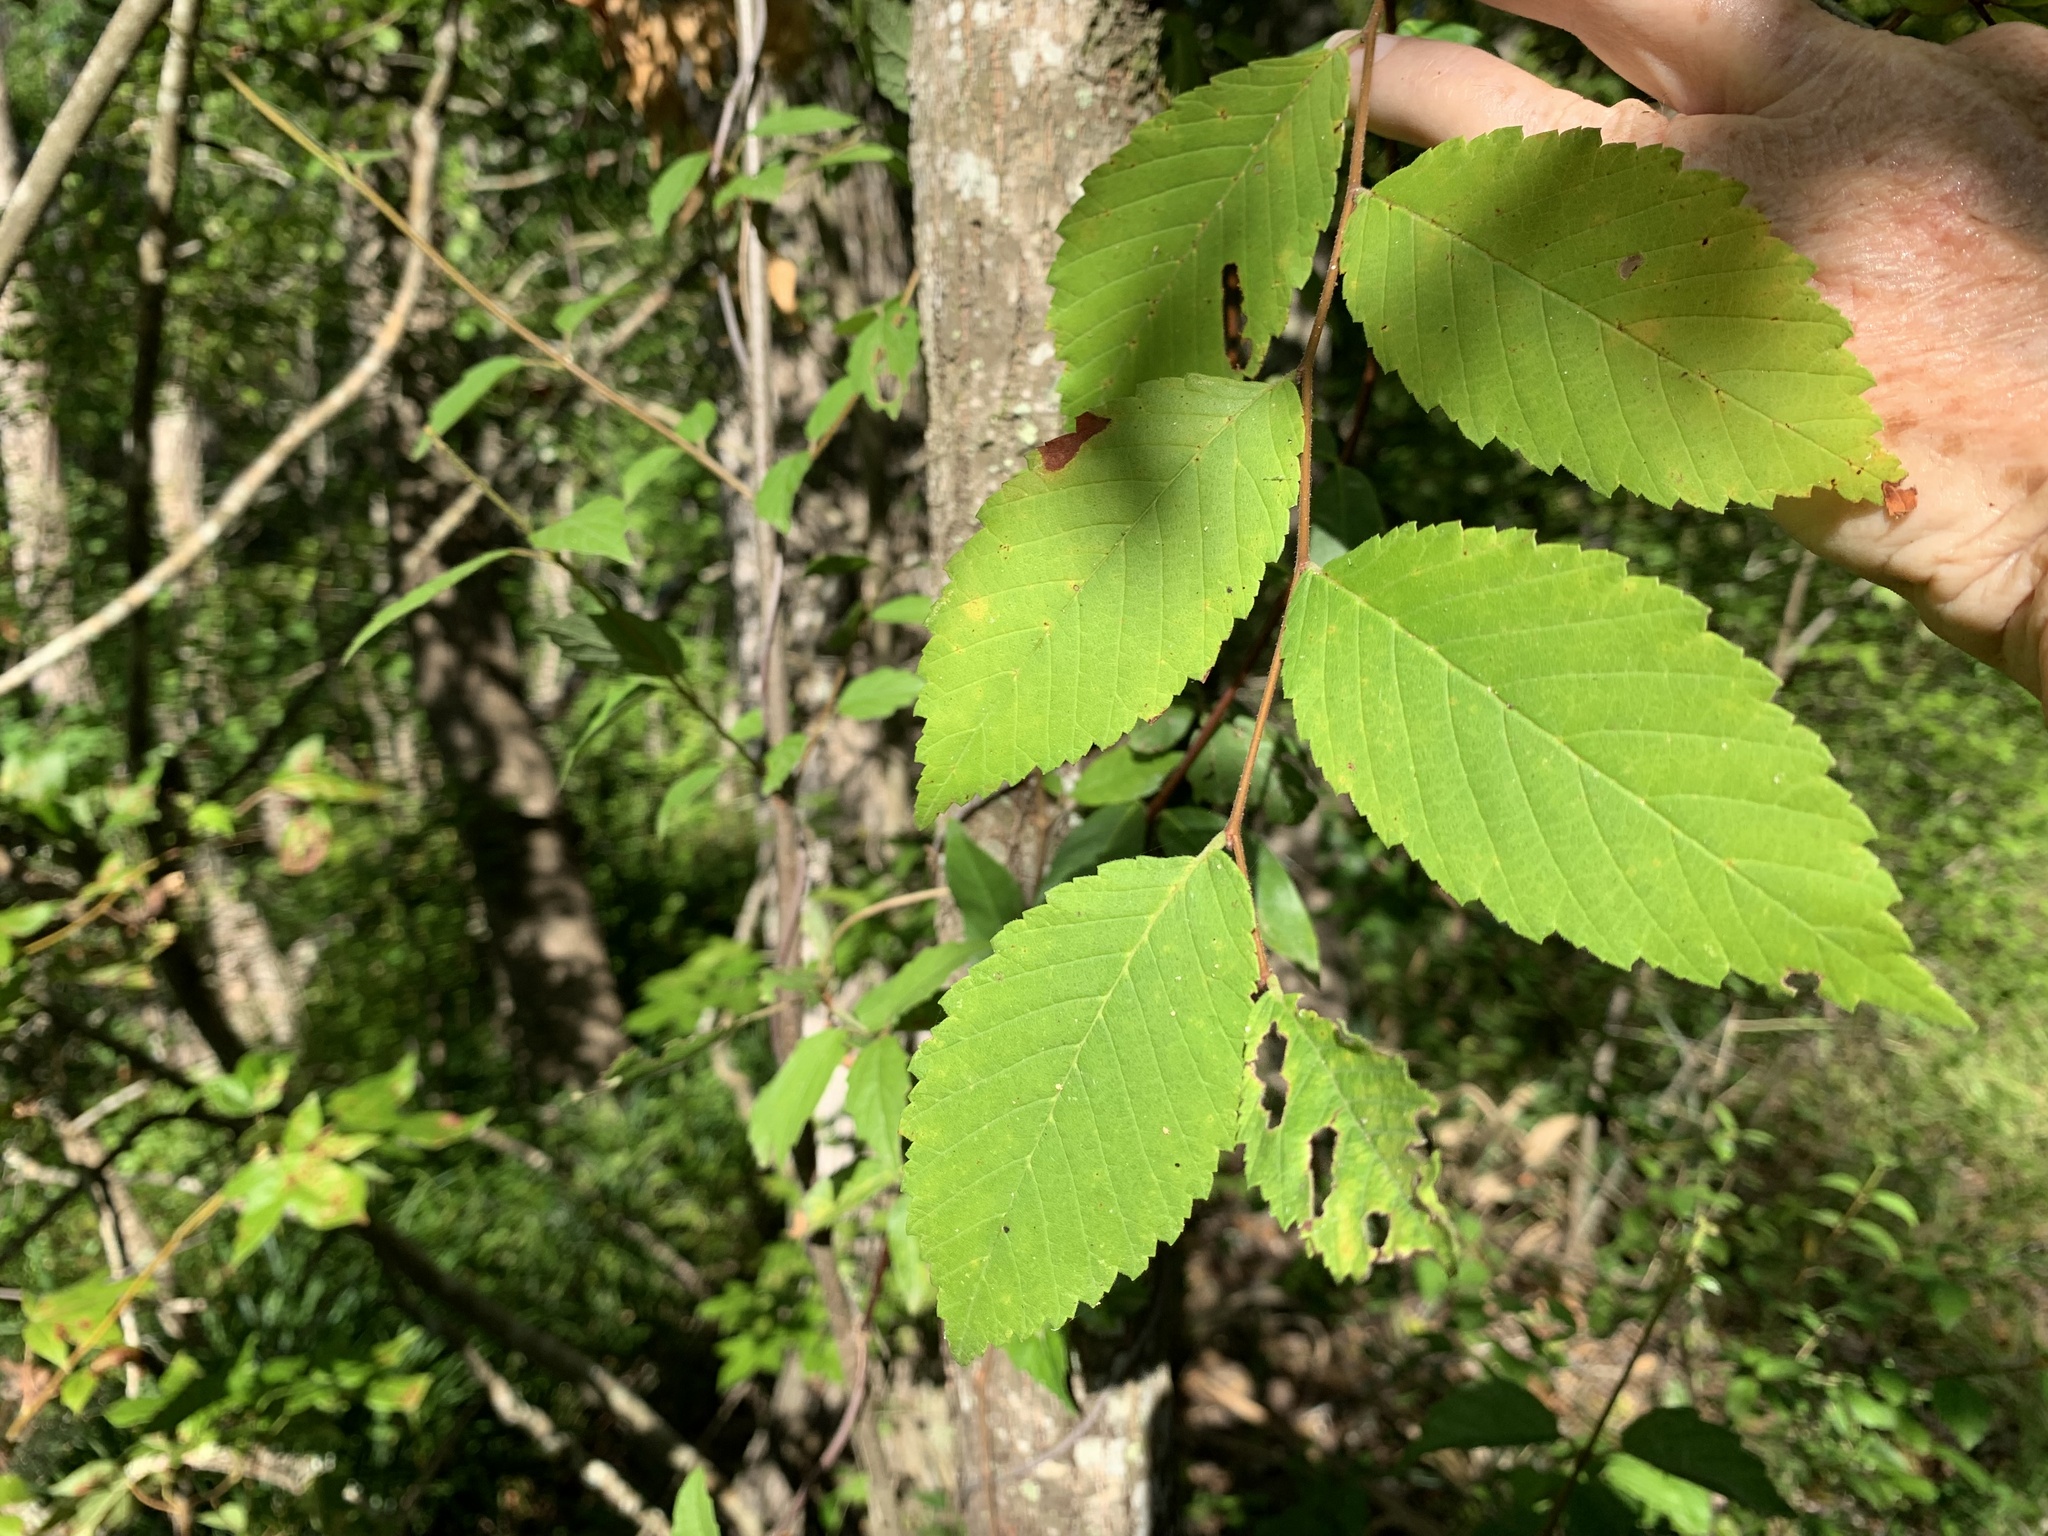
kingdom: Plantae
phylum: Tracheophyta
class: Magnoliopsida
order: Rosales
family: Ulmaceae
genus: Ulmus
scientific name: Ulmus rubra
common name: Slippery elm
